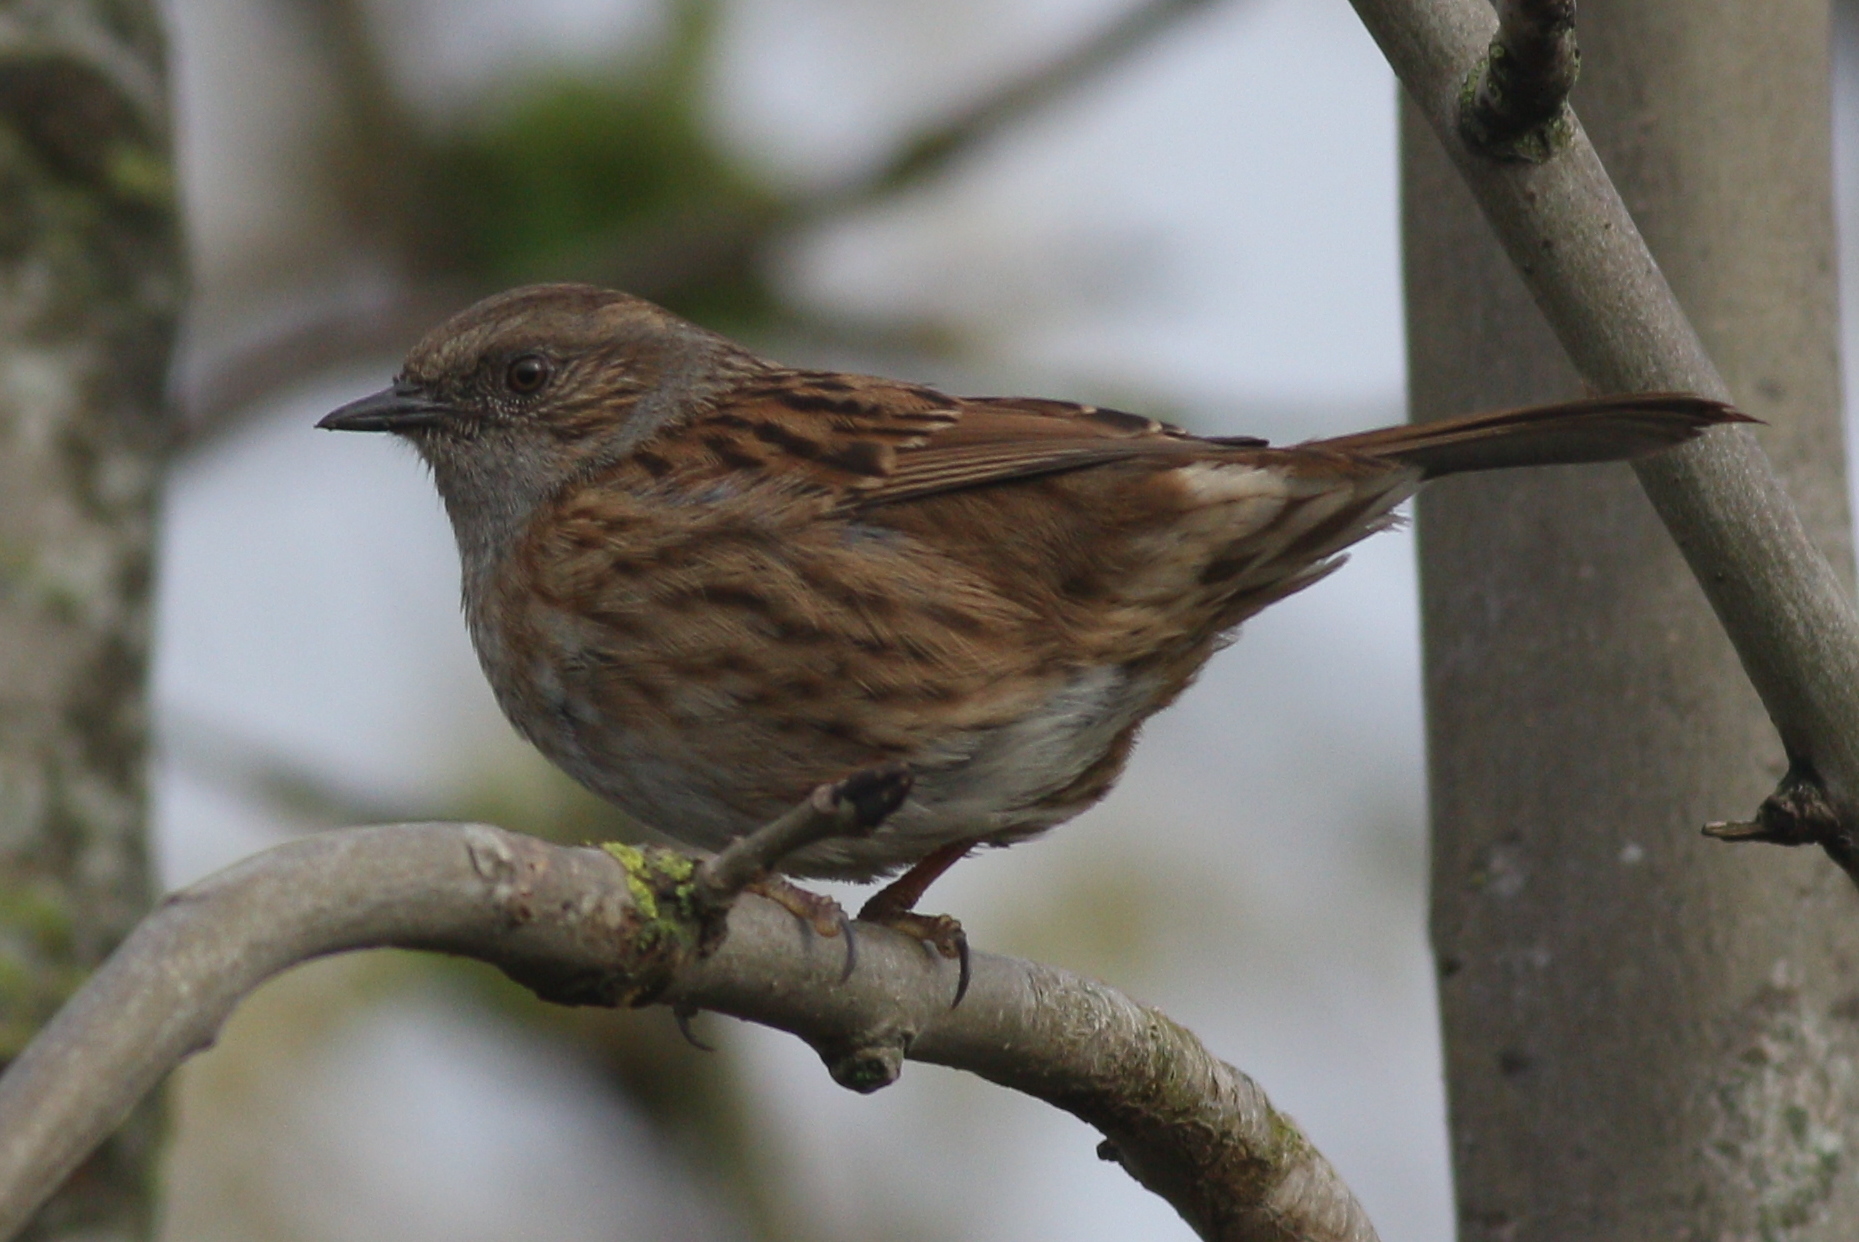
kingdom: Animalia
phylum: Chordata
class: Aves
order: Passeriformes
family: Prunellidae
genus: Prunella
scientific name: Prunella modularis
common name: Dunnock
